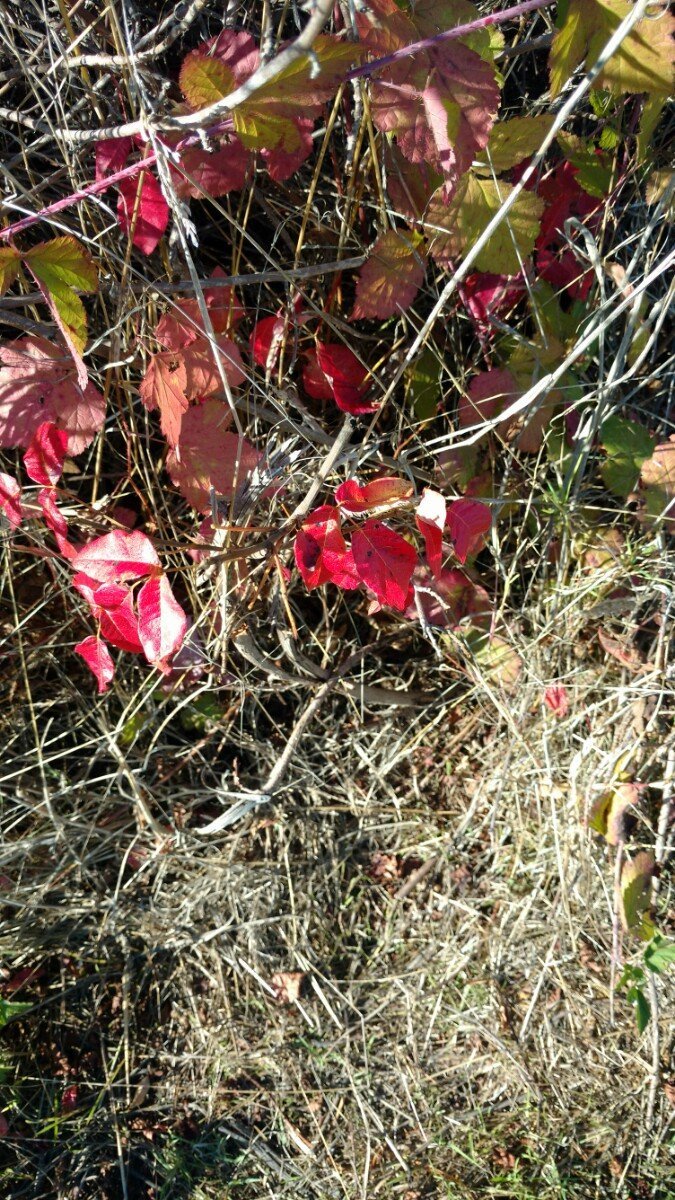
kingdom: Plantae
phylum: Tracheophyta
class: Magnoliopsida
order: Sapindales
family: Anacardiaceae
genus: Toxicodendron
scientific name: Toxicodendron diversilobum
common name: Pacific poison-oak
